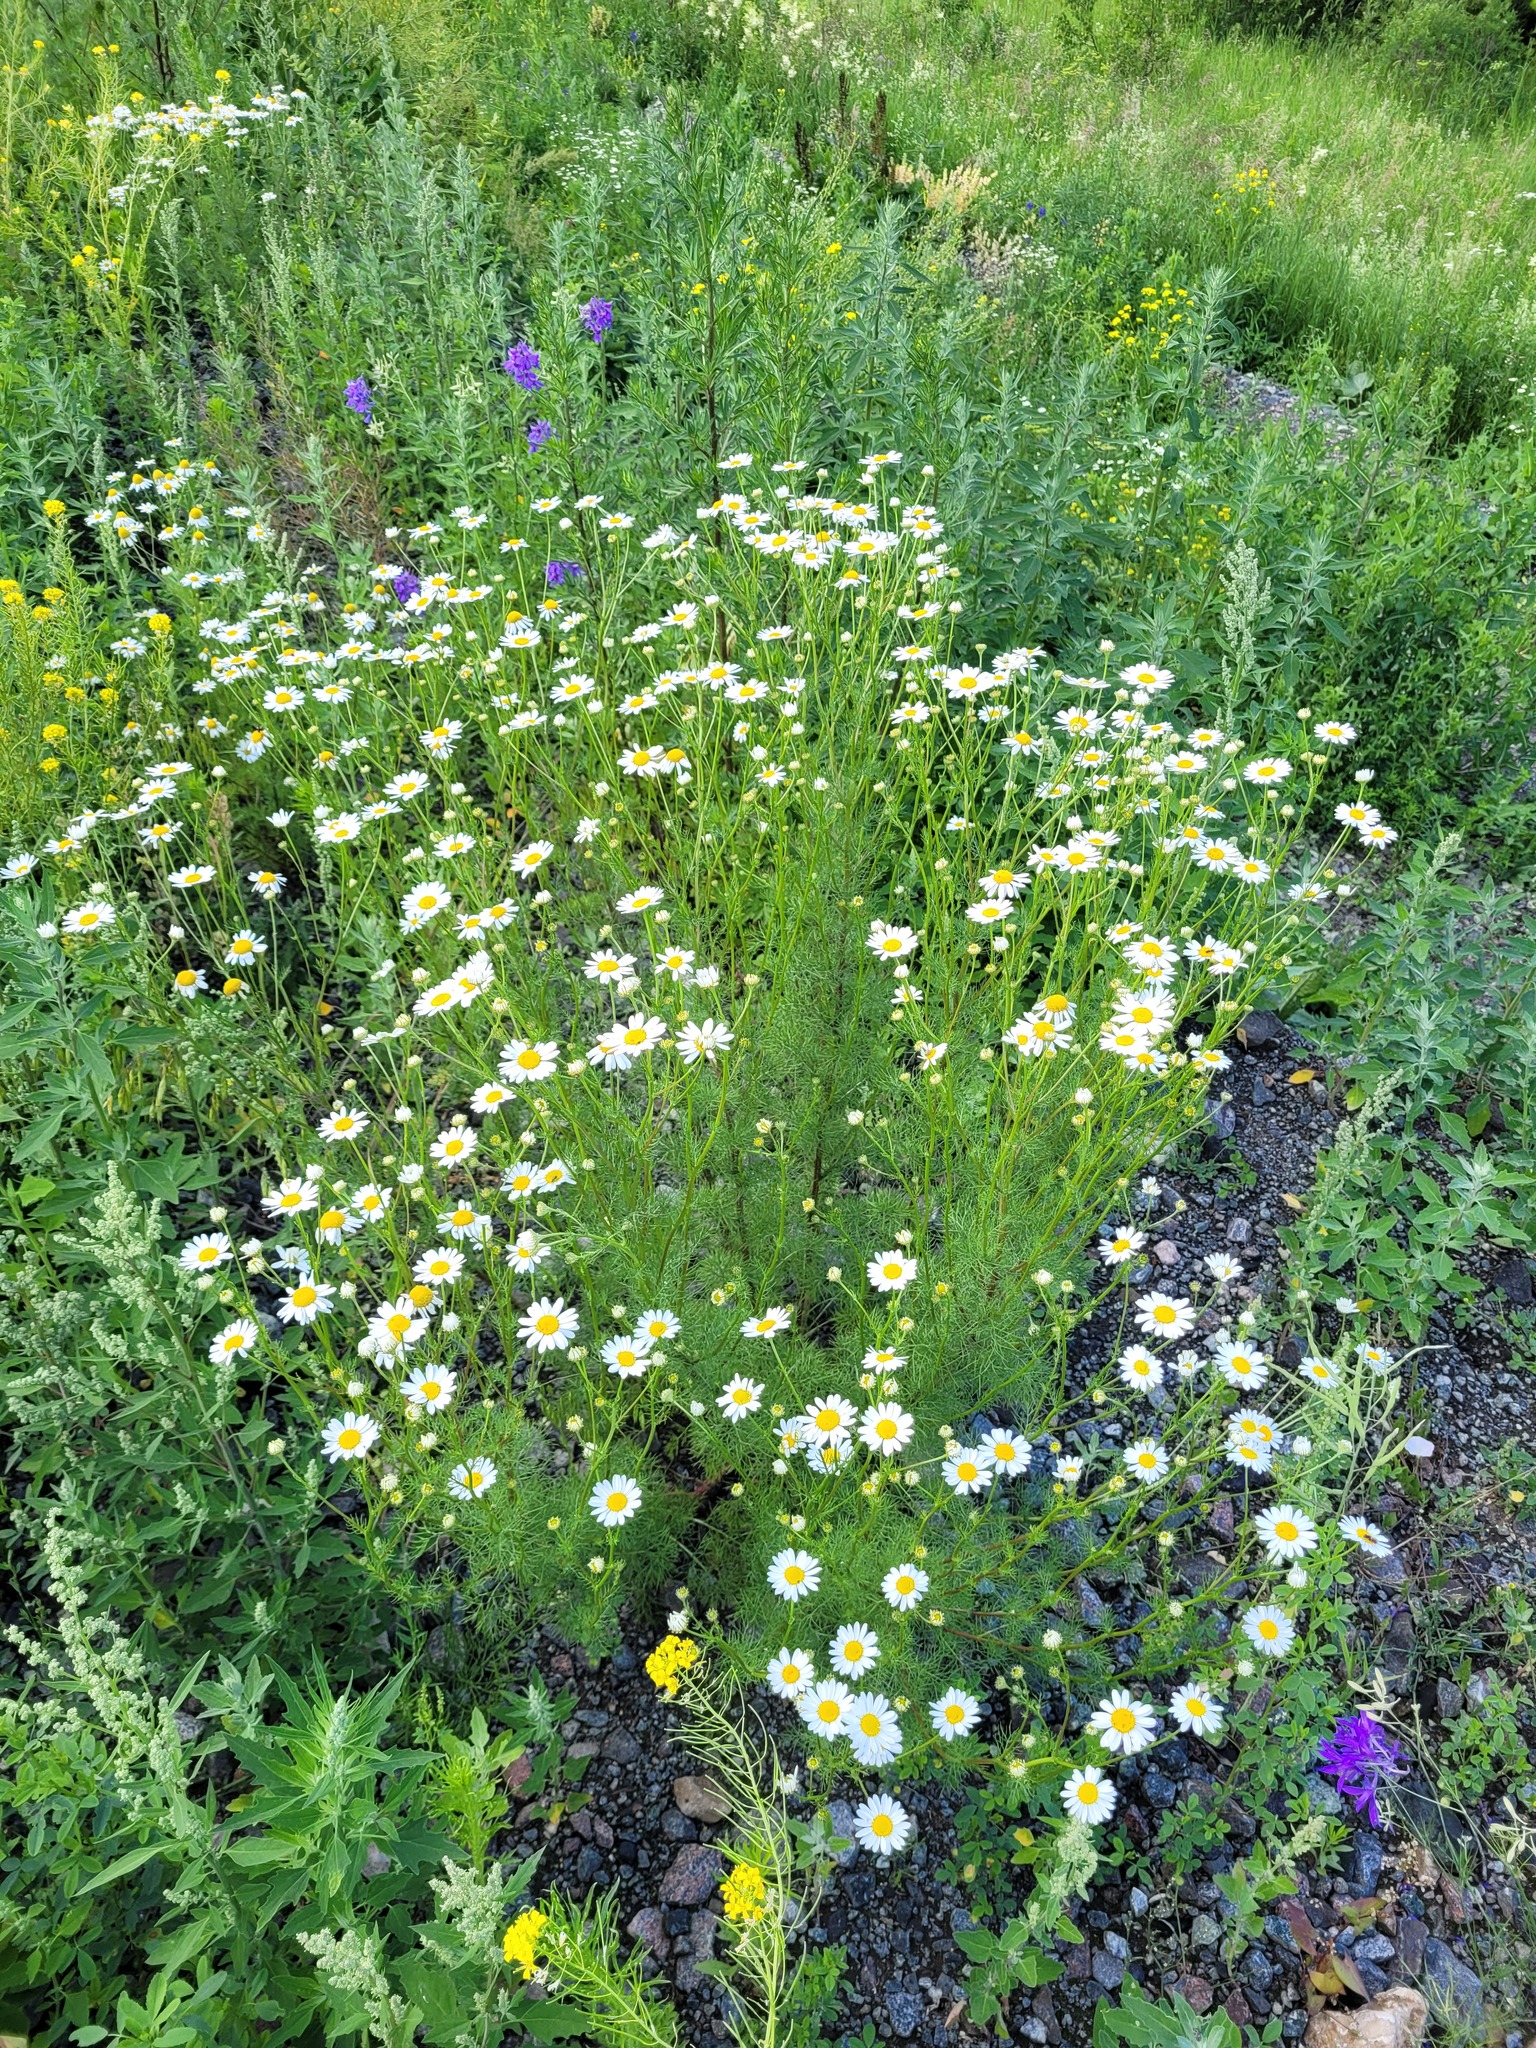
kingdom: Plantae
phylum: Tracheophyta
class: Magnoliopsida
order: Asterales
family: Asteraceae
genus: Tripleurospermum
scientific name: Tripleurospermum inodorum
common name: Scentless mayweed
